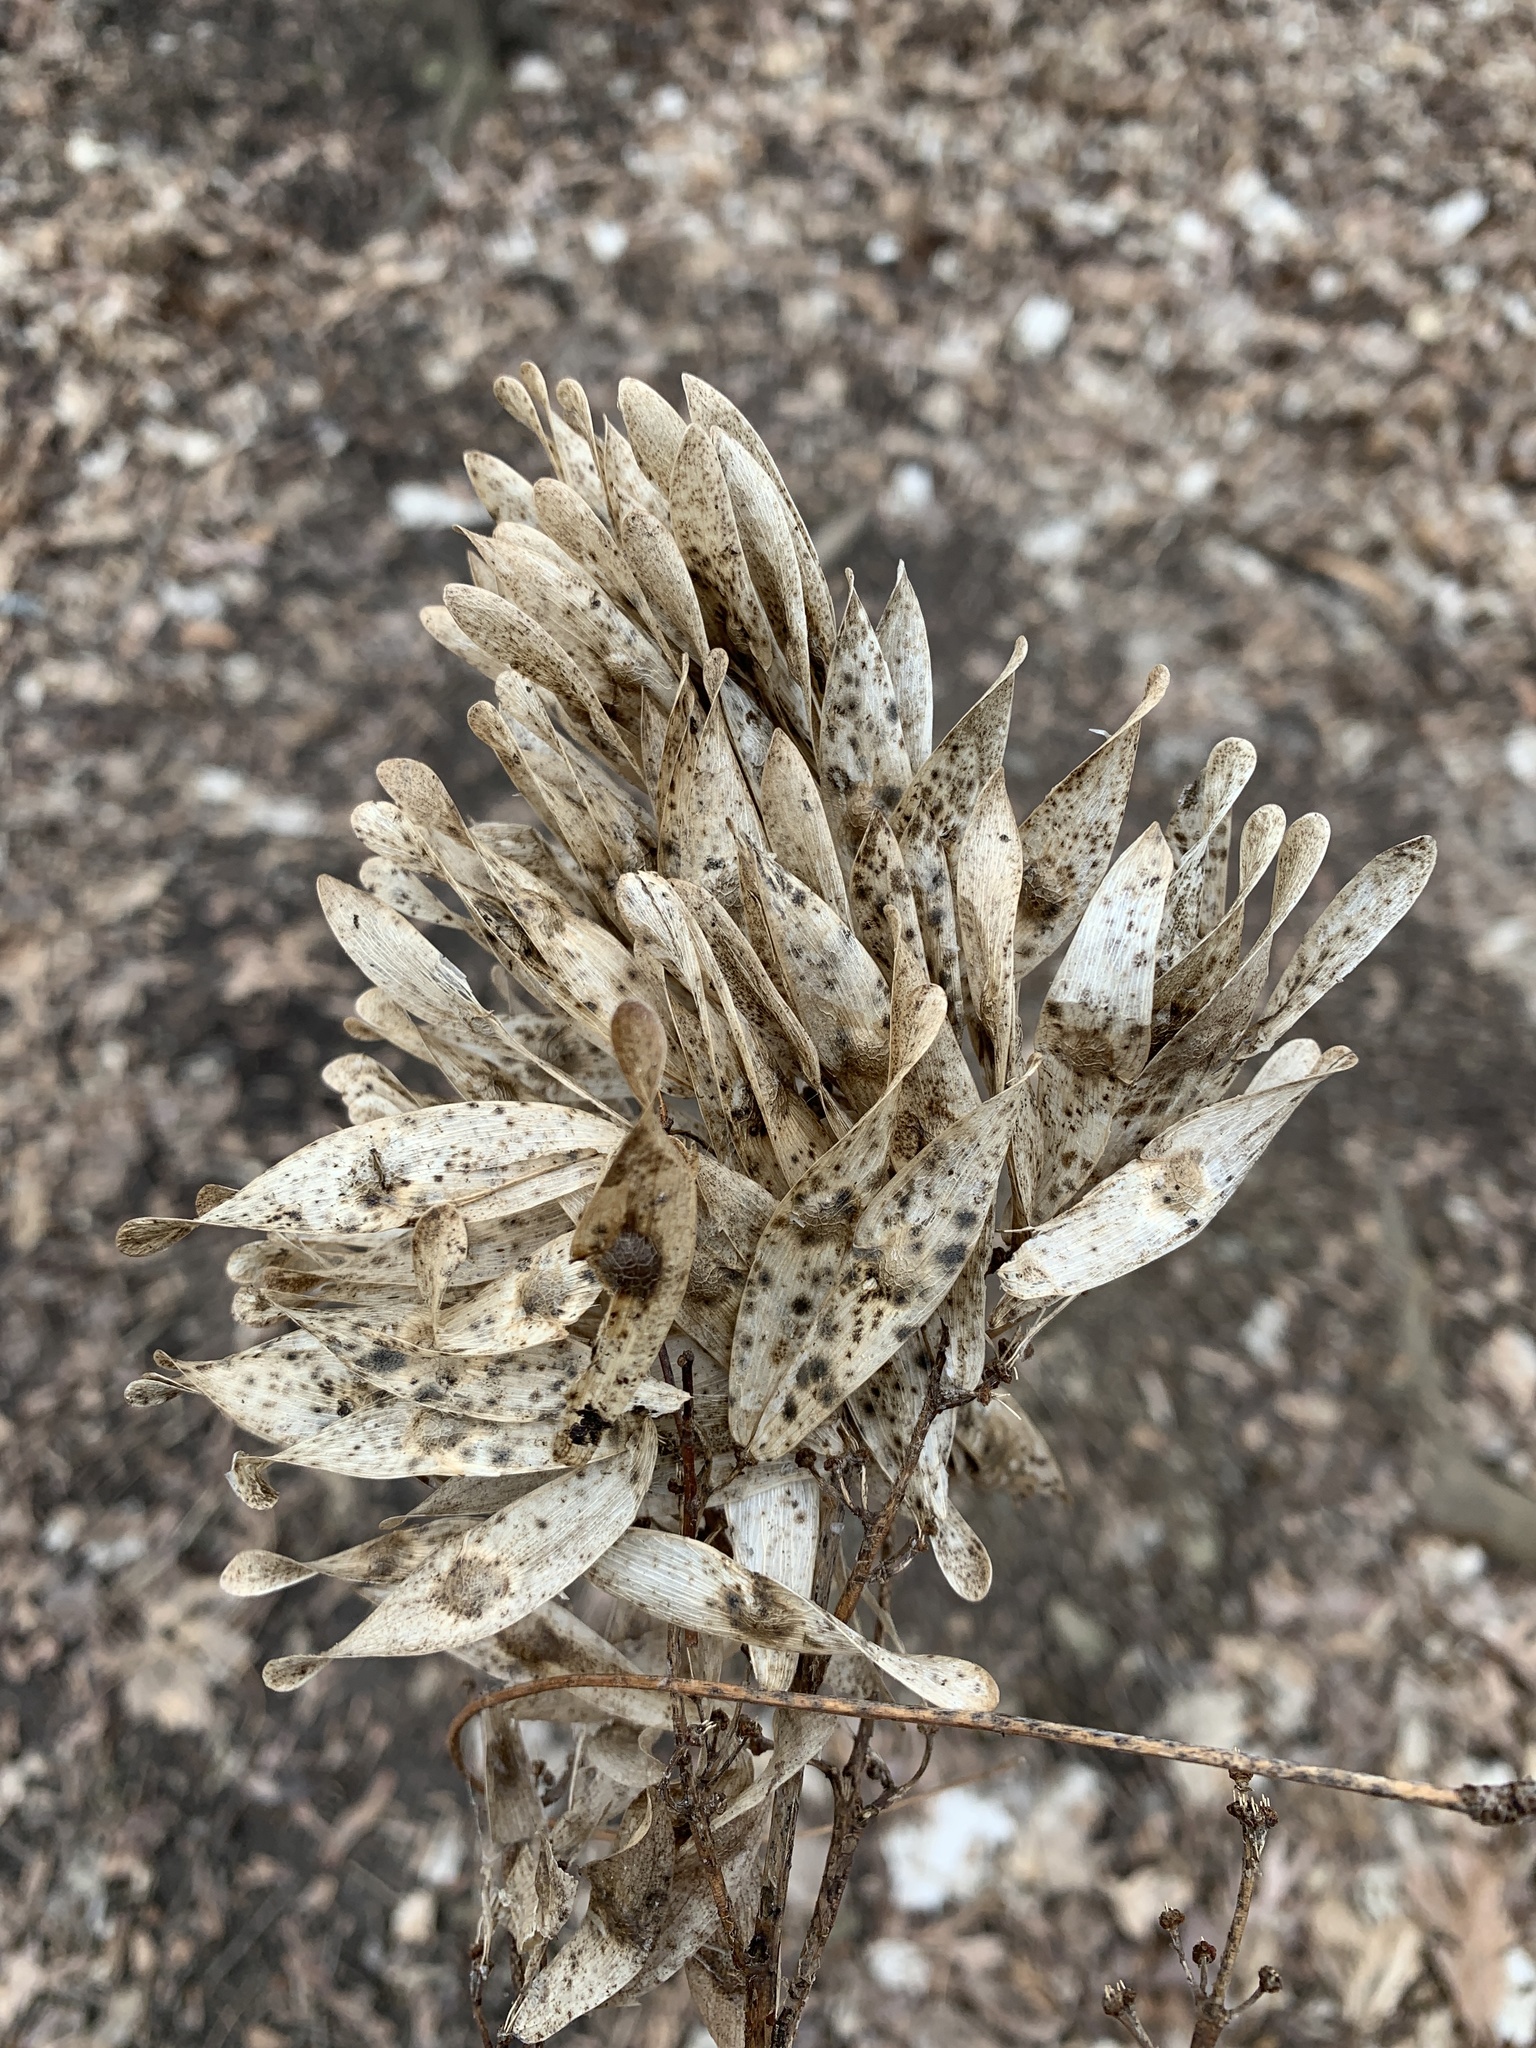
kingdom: Plantae
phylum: Tracheophyta
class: Magnoliopsida
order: Sapindales
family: Simaroubaceae
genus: Ailanthus
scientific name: Ailanthus altissima
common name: Tree-of-heaven
